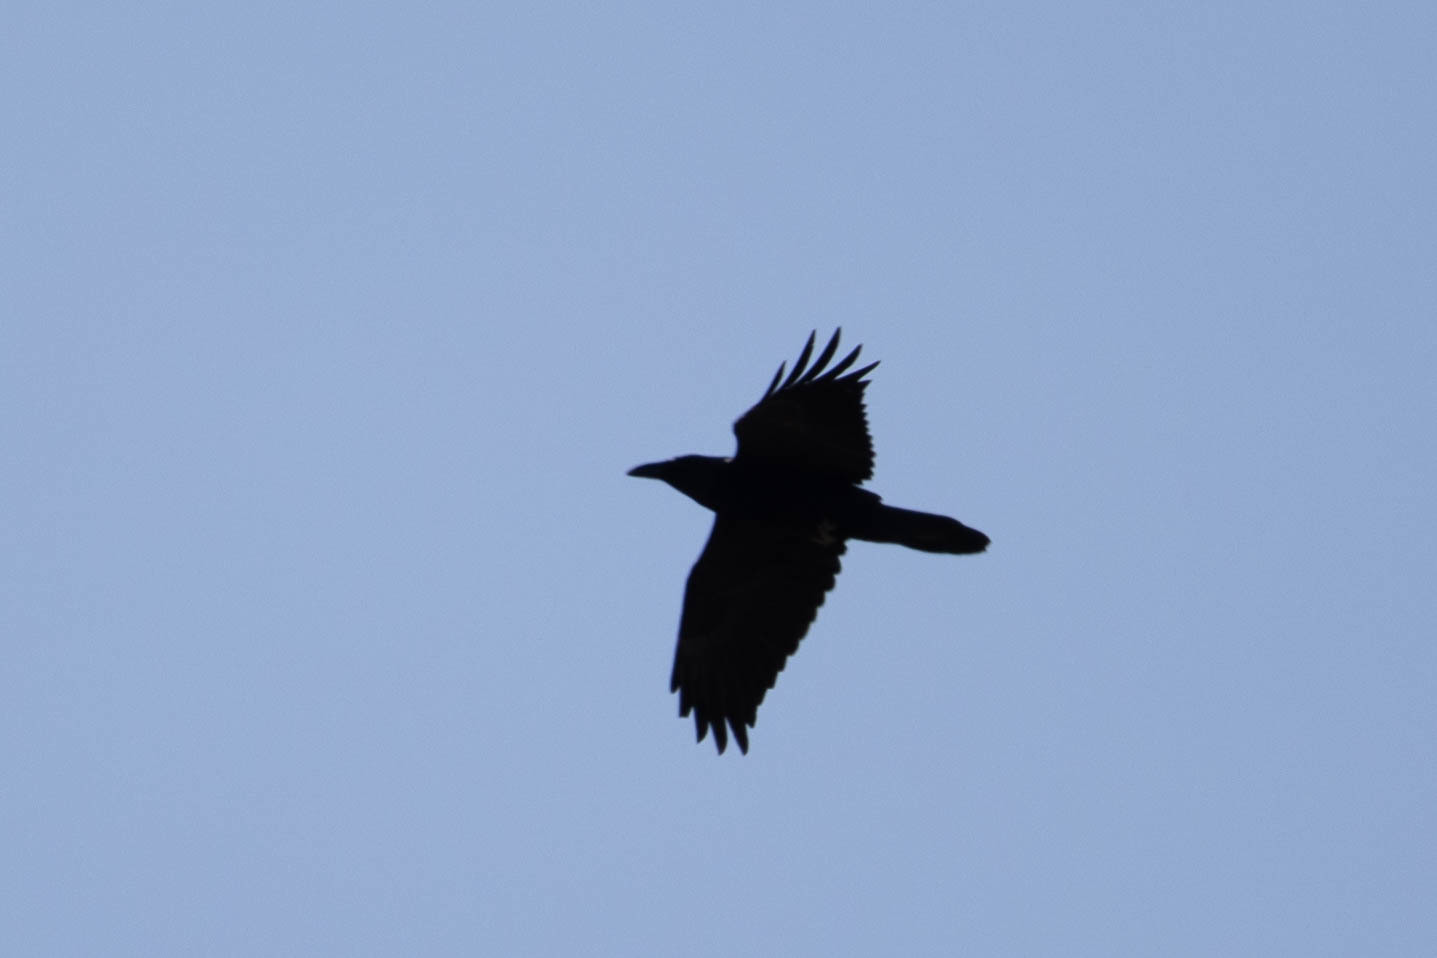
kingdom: Animalia
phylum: Chordata
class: Aves
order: Passeriformes
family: Corvidae
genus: Corvus
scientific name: Corvus corax
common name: Common raven
